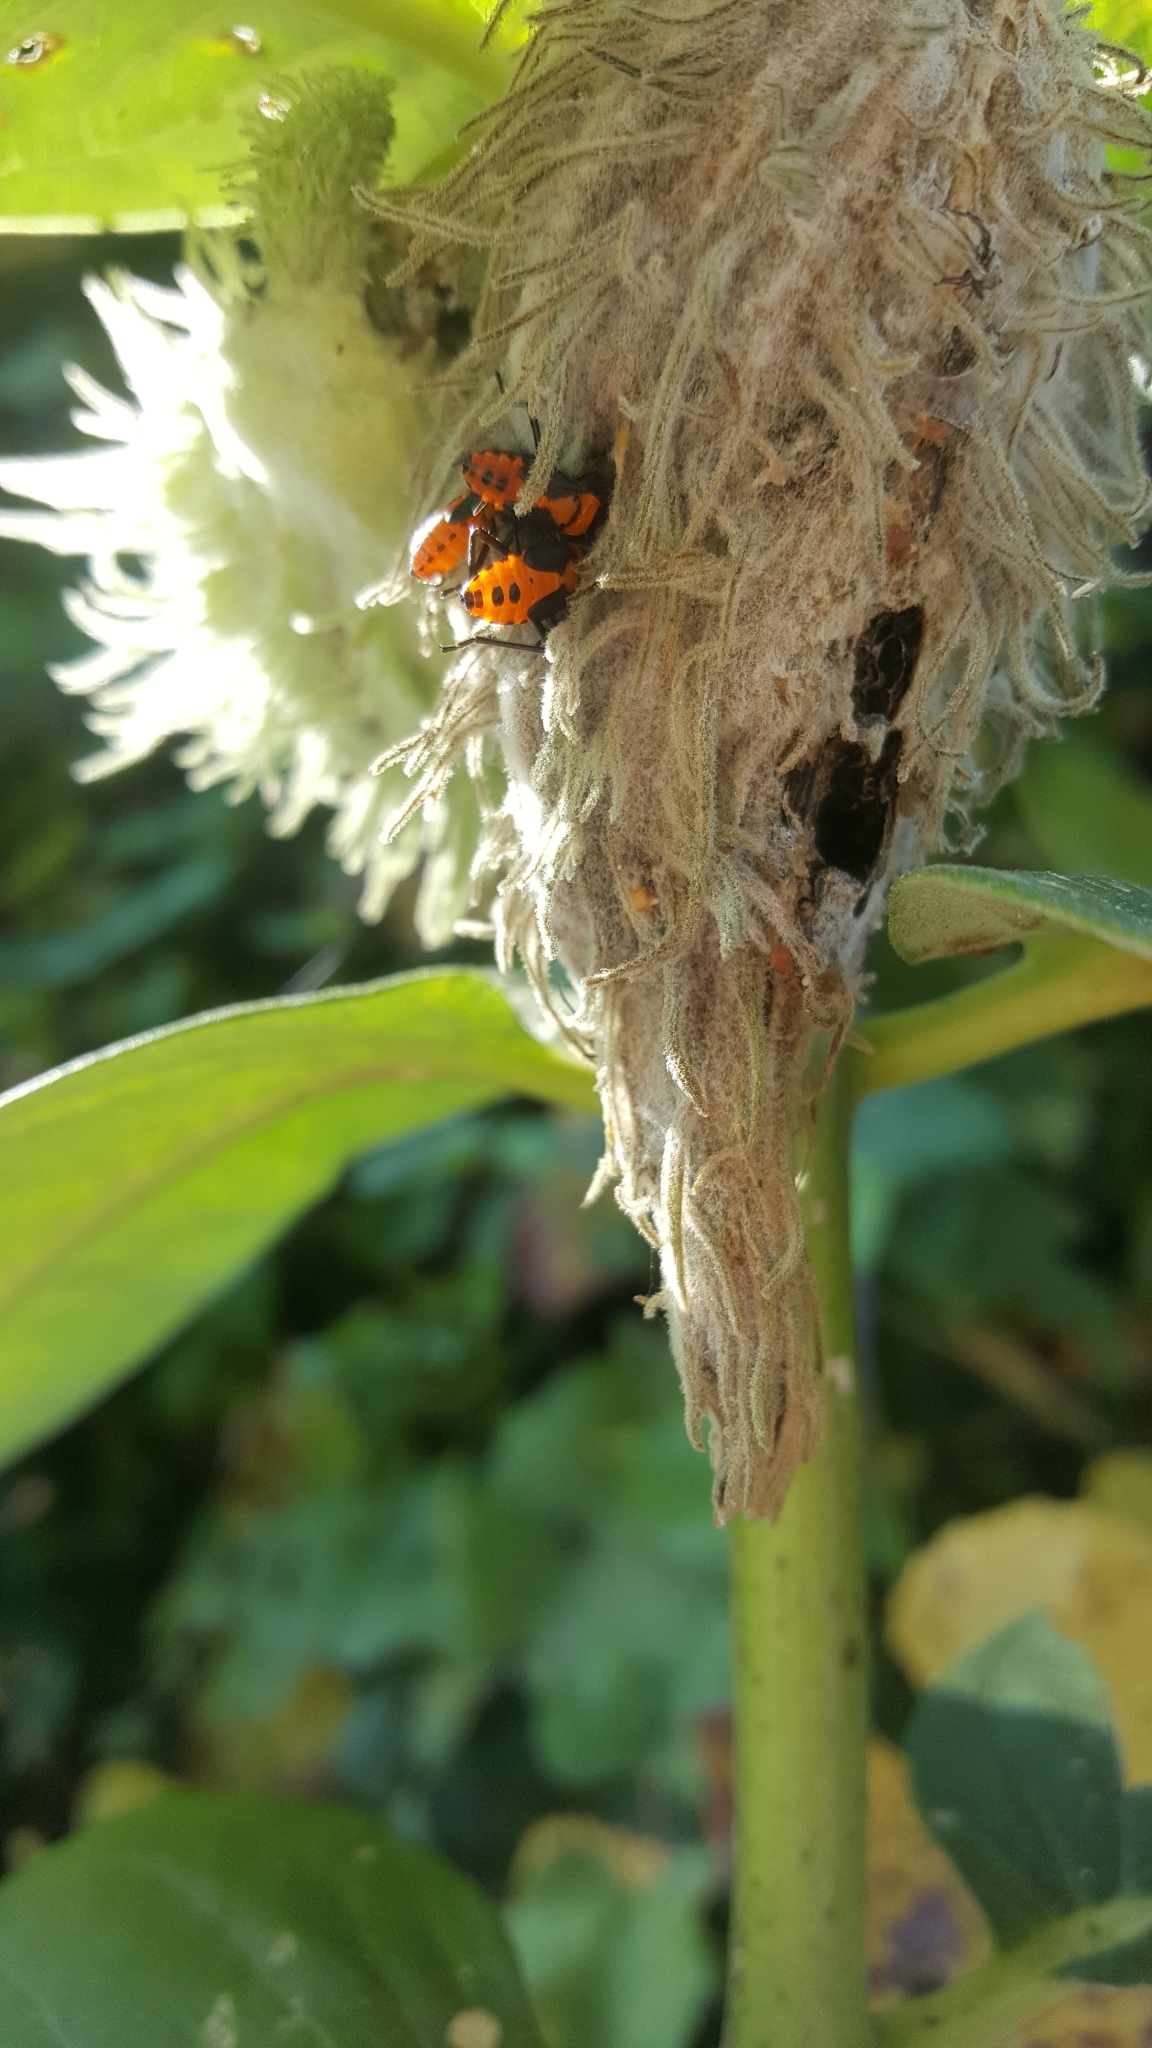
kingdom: Animalia
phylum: Arthropoda
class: Insecta
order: Hemiptera
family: Lygaeidae
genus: Oncopeltus
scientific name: Oncopeltus fasciatus
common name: Large milkweed bug
